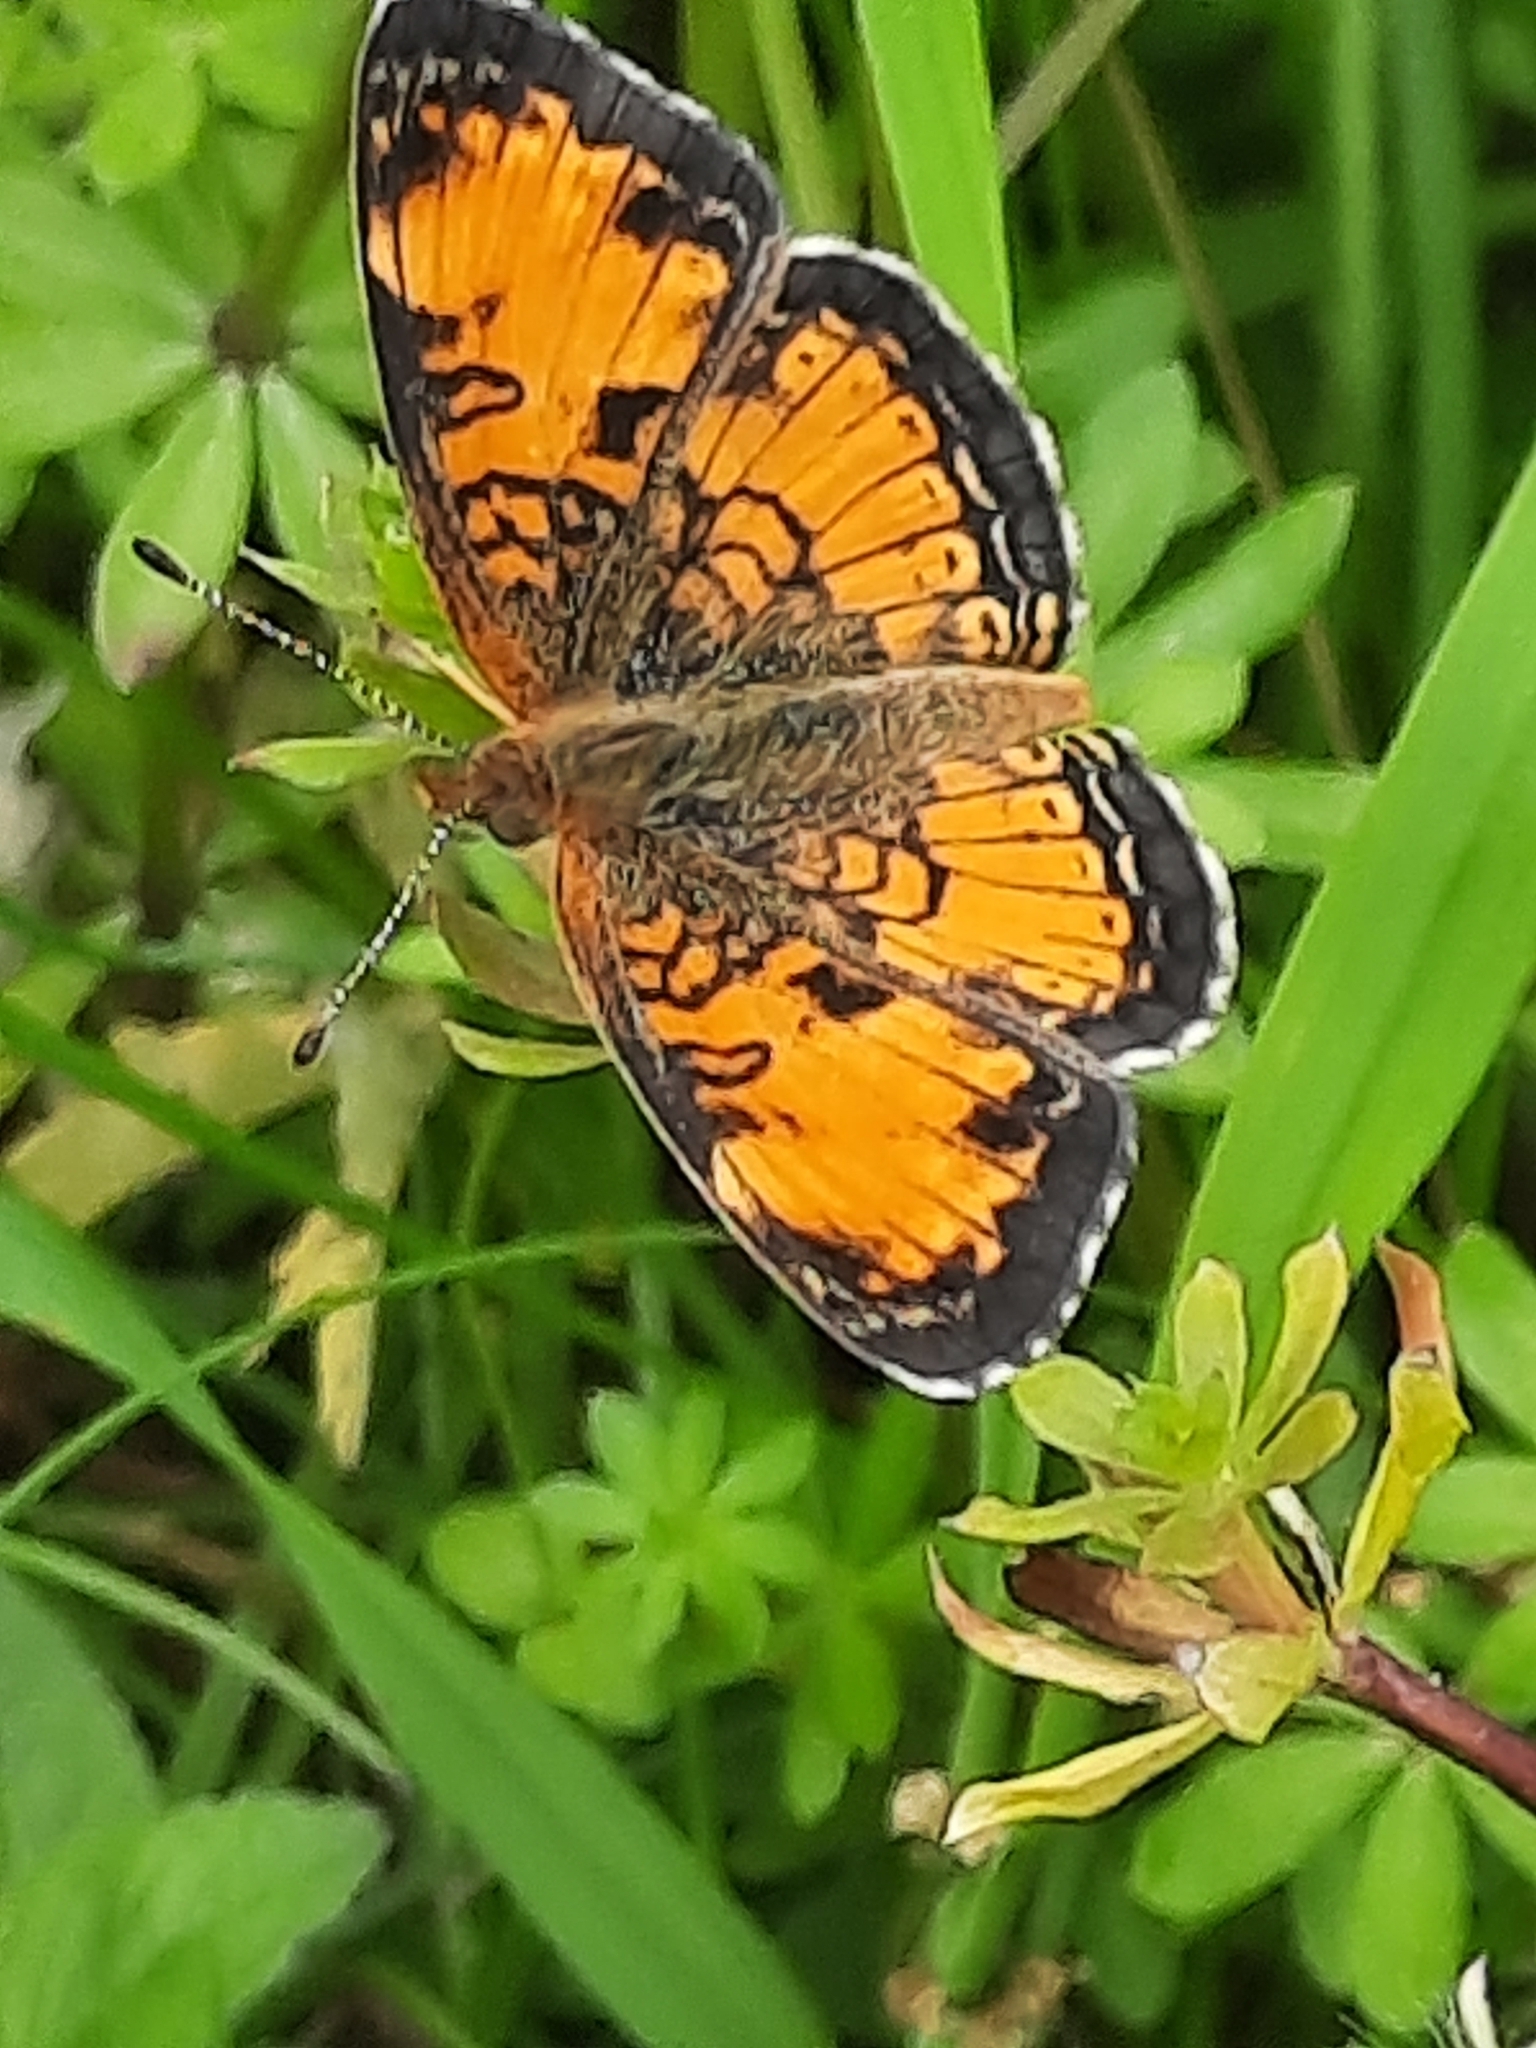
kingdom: Animalia
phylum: Arthropoda
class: Insecta
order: Lepidoptera
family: Nymphalidae
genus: Phyciodes
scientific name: Phyciodes tharos
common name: Pearl crescent
